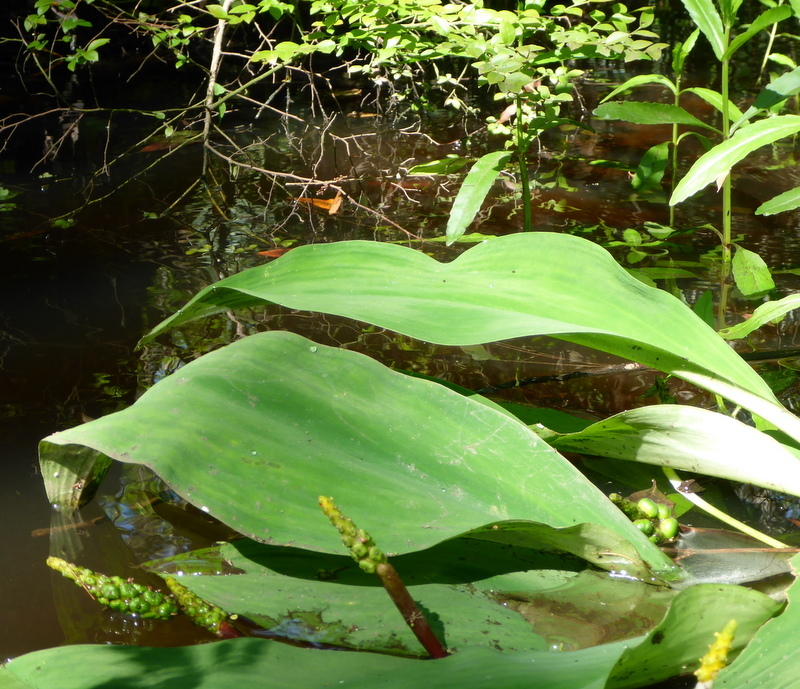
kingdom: Plantae
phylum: Tracheophyta
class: Liliopsida
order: Alismatales
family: Araceae
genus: Orontium
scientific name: Orontium aquaticum
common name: Golden-club
